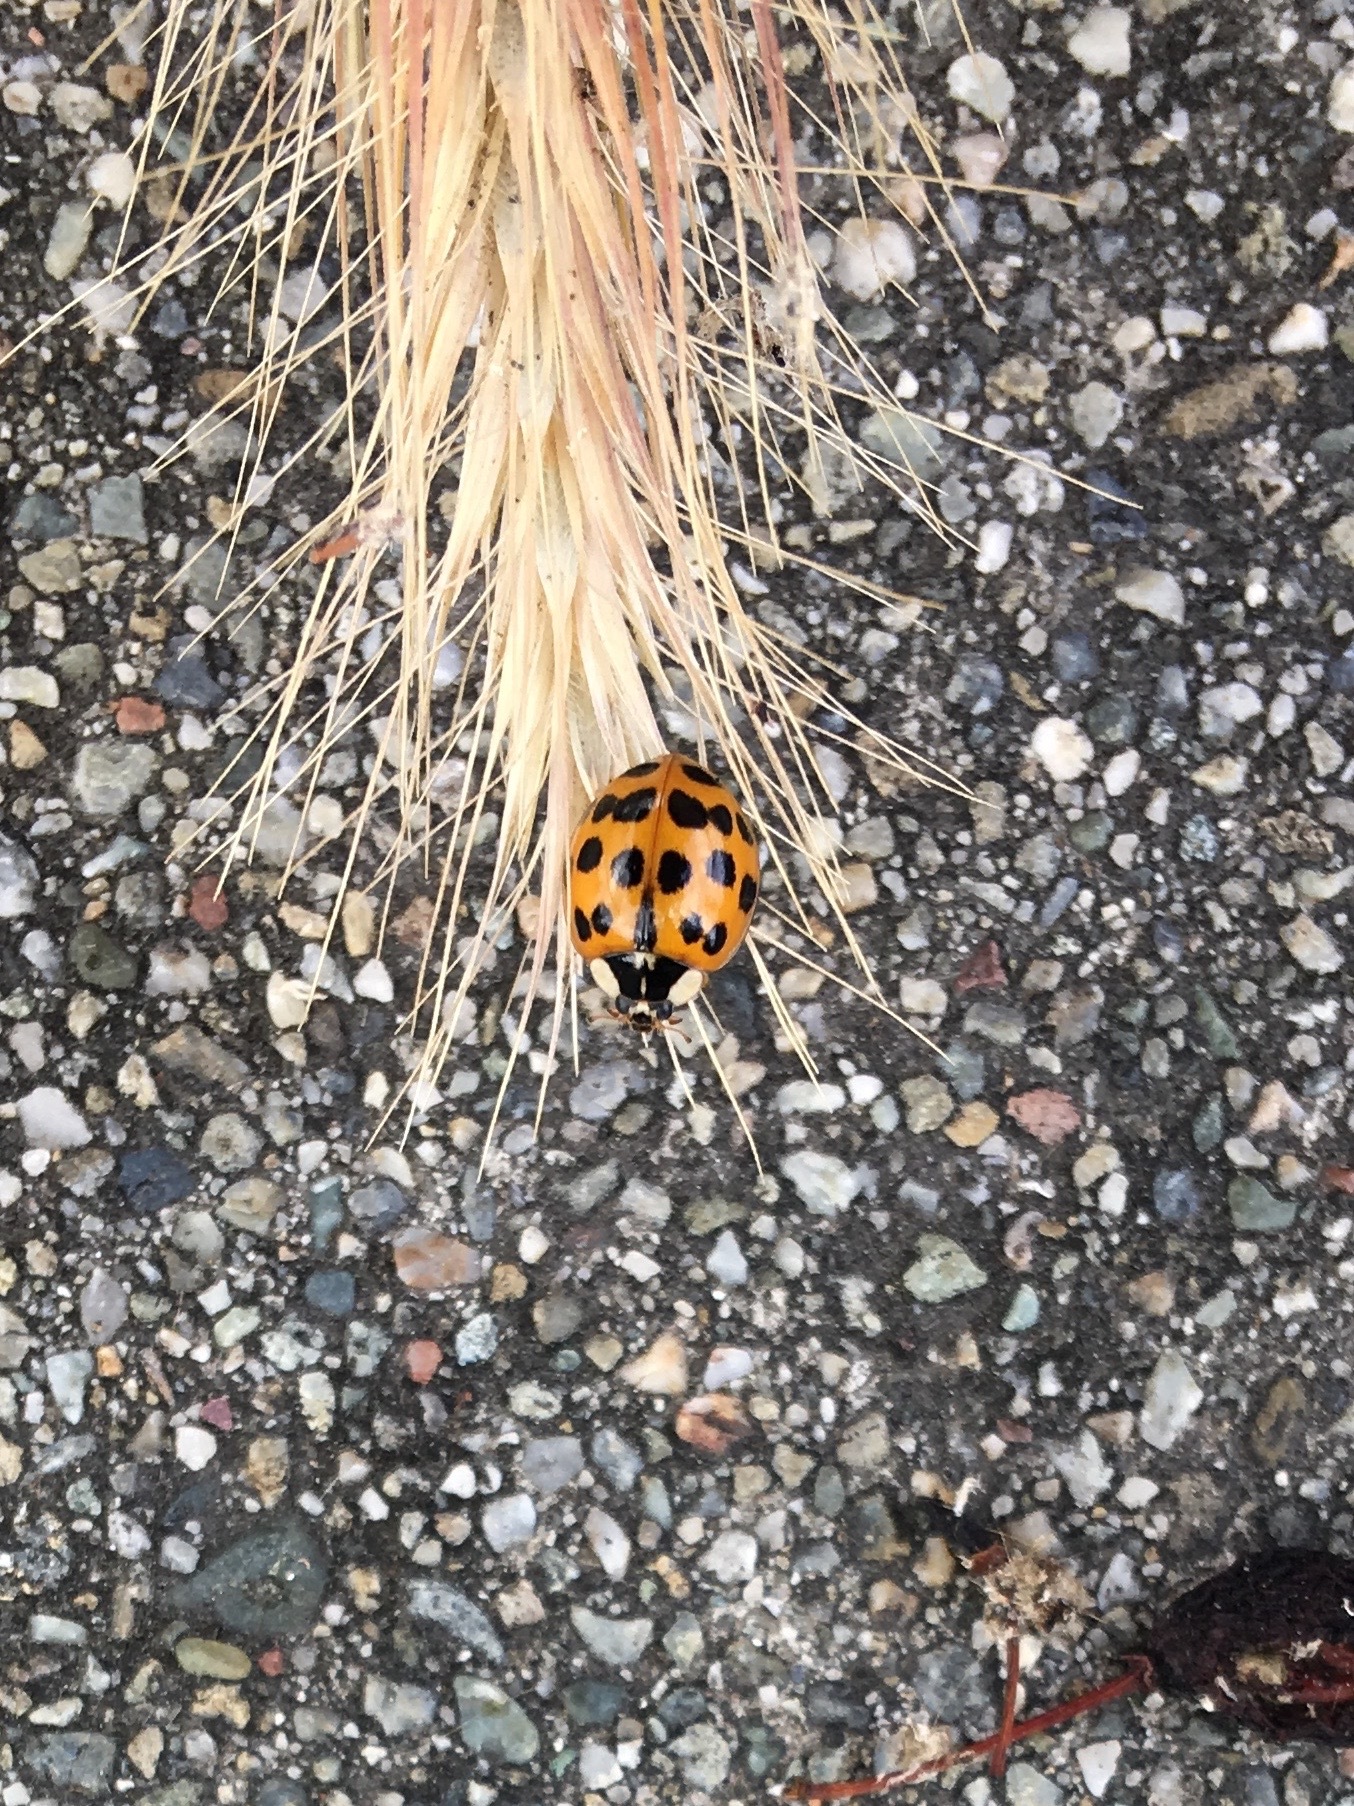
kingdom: Animalia
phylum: Arthropoda
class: Insecta
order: Coleoptera
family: Coccinellidae
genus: Harmonia
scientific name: Harmonia axyridis
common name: Harlequin ladybird
